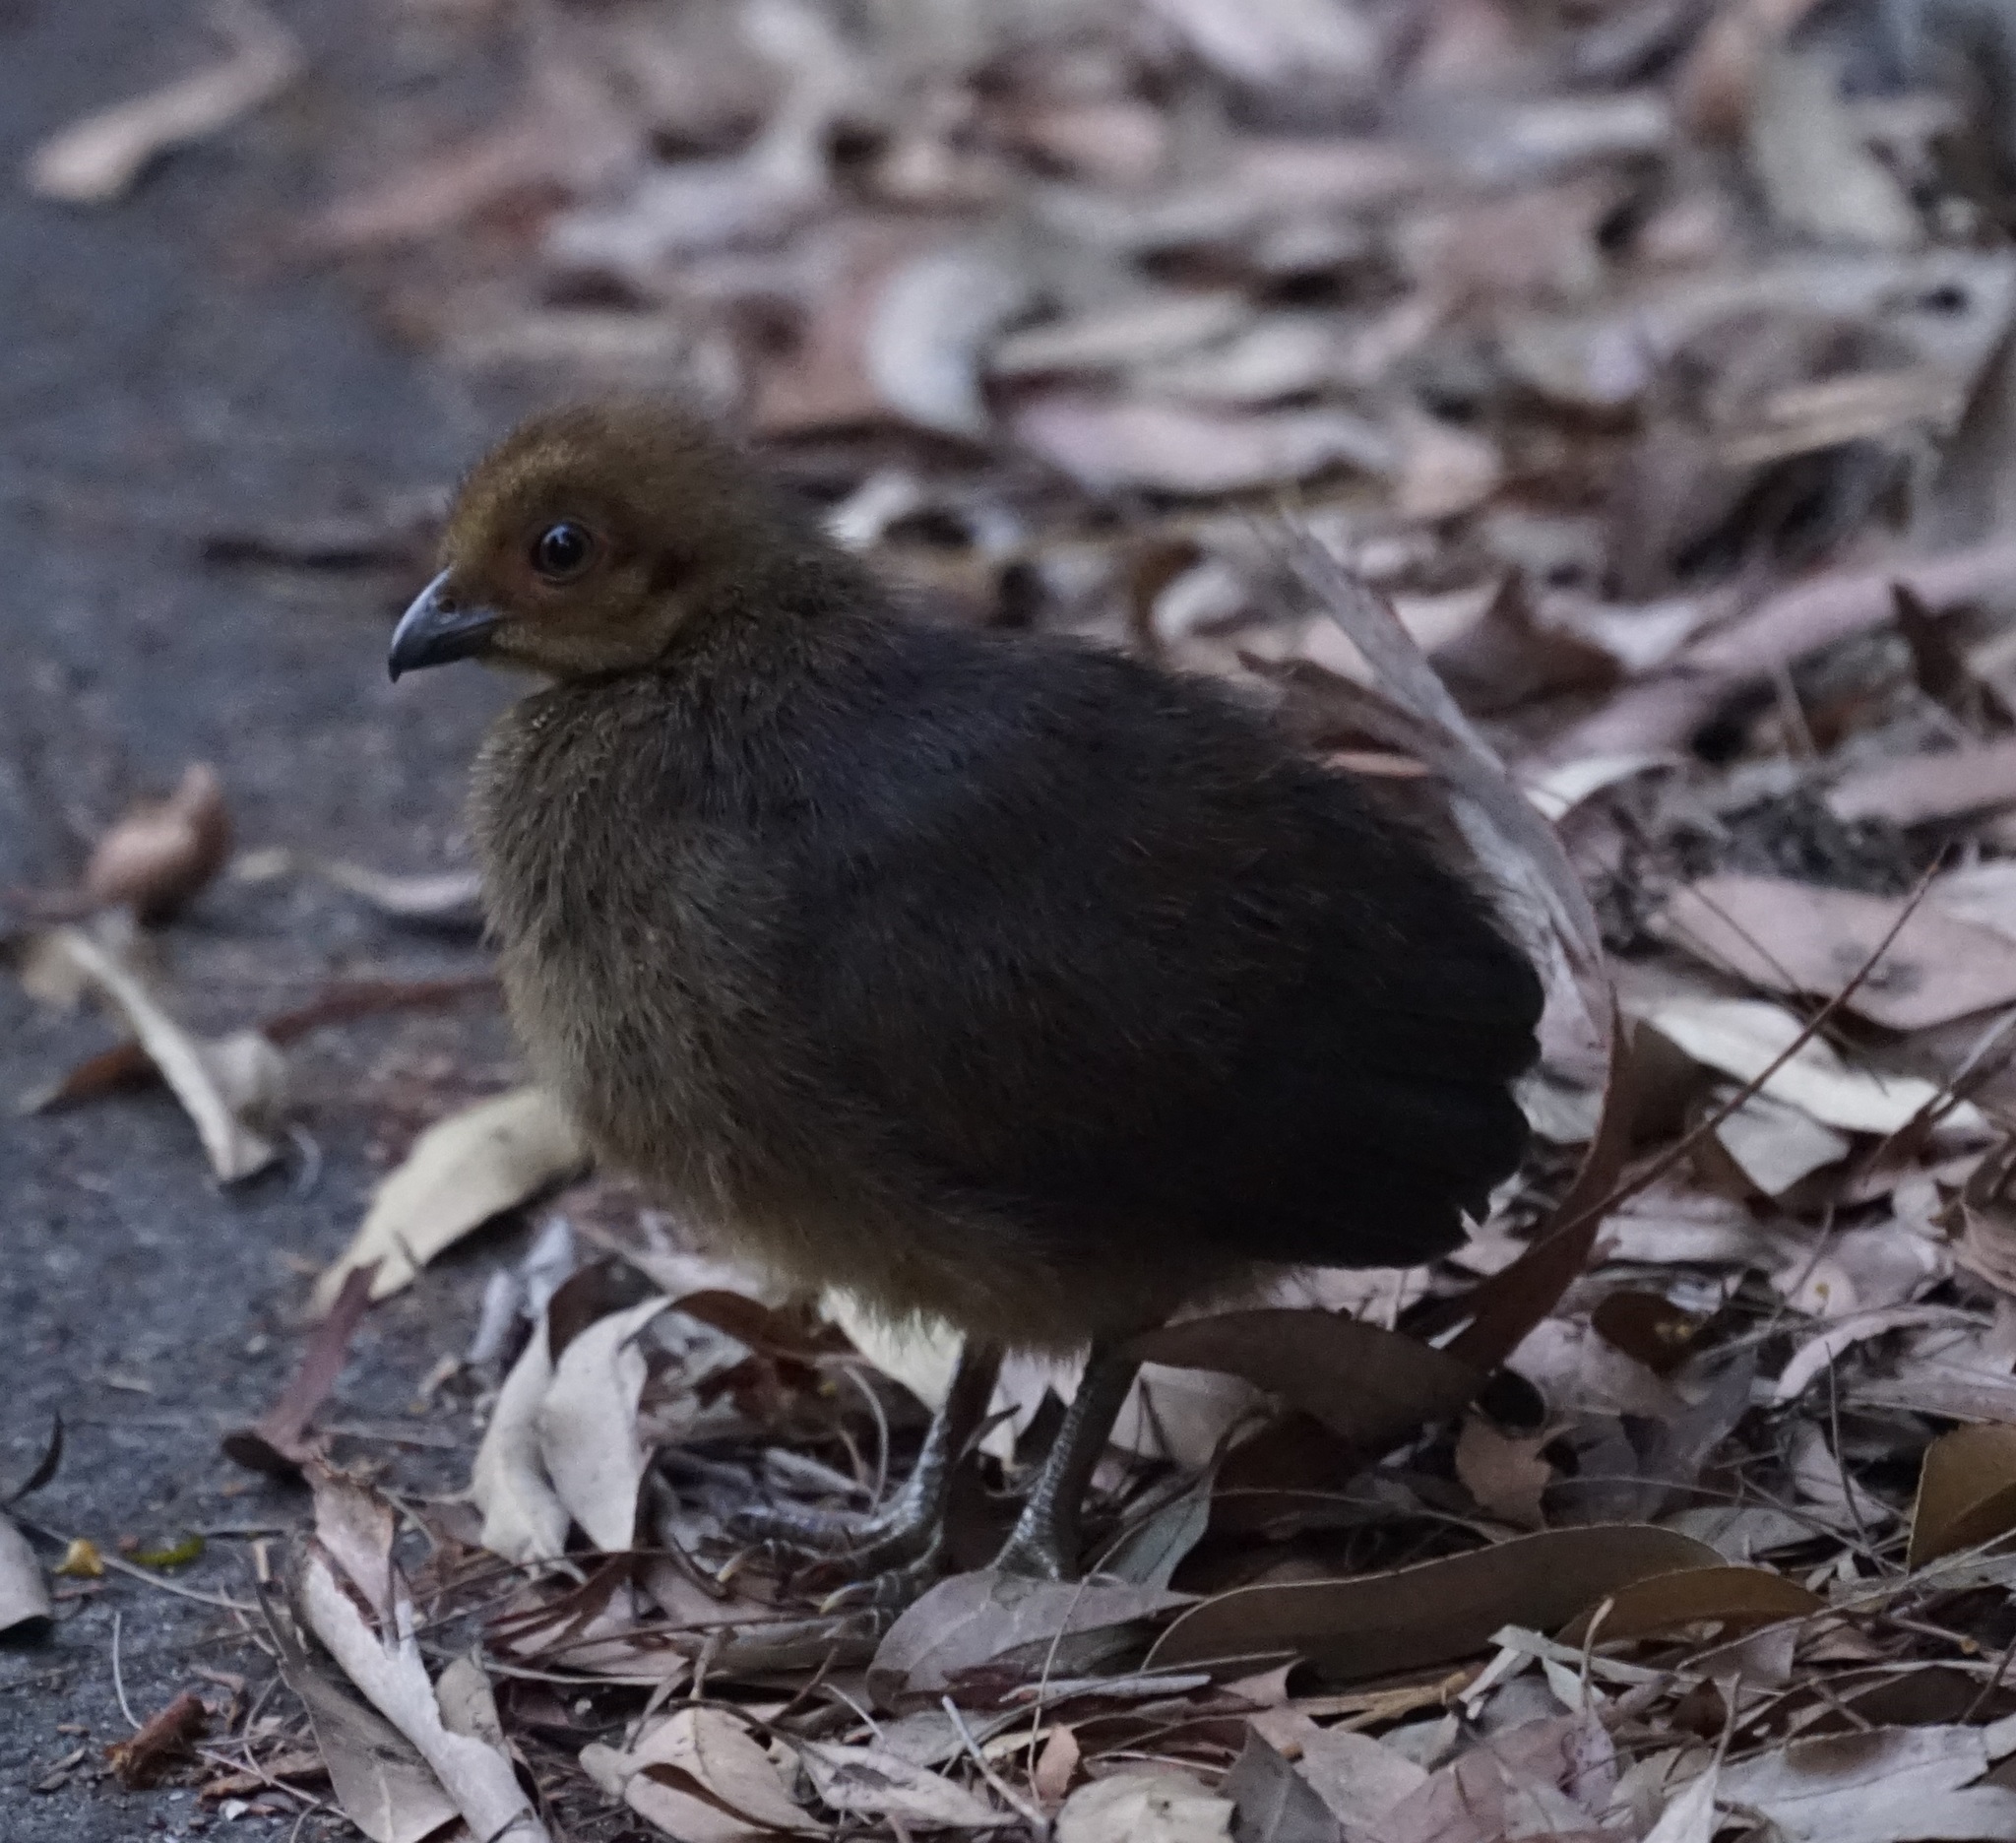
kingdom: Animalia
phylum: Chordata
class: Aves
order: Galliformes
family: Megapodiidae
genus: Alectura
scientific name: Alectura lathami
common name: Australian brushturkey
